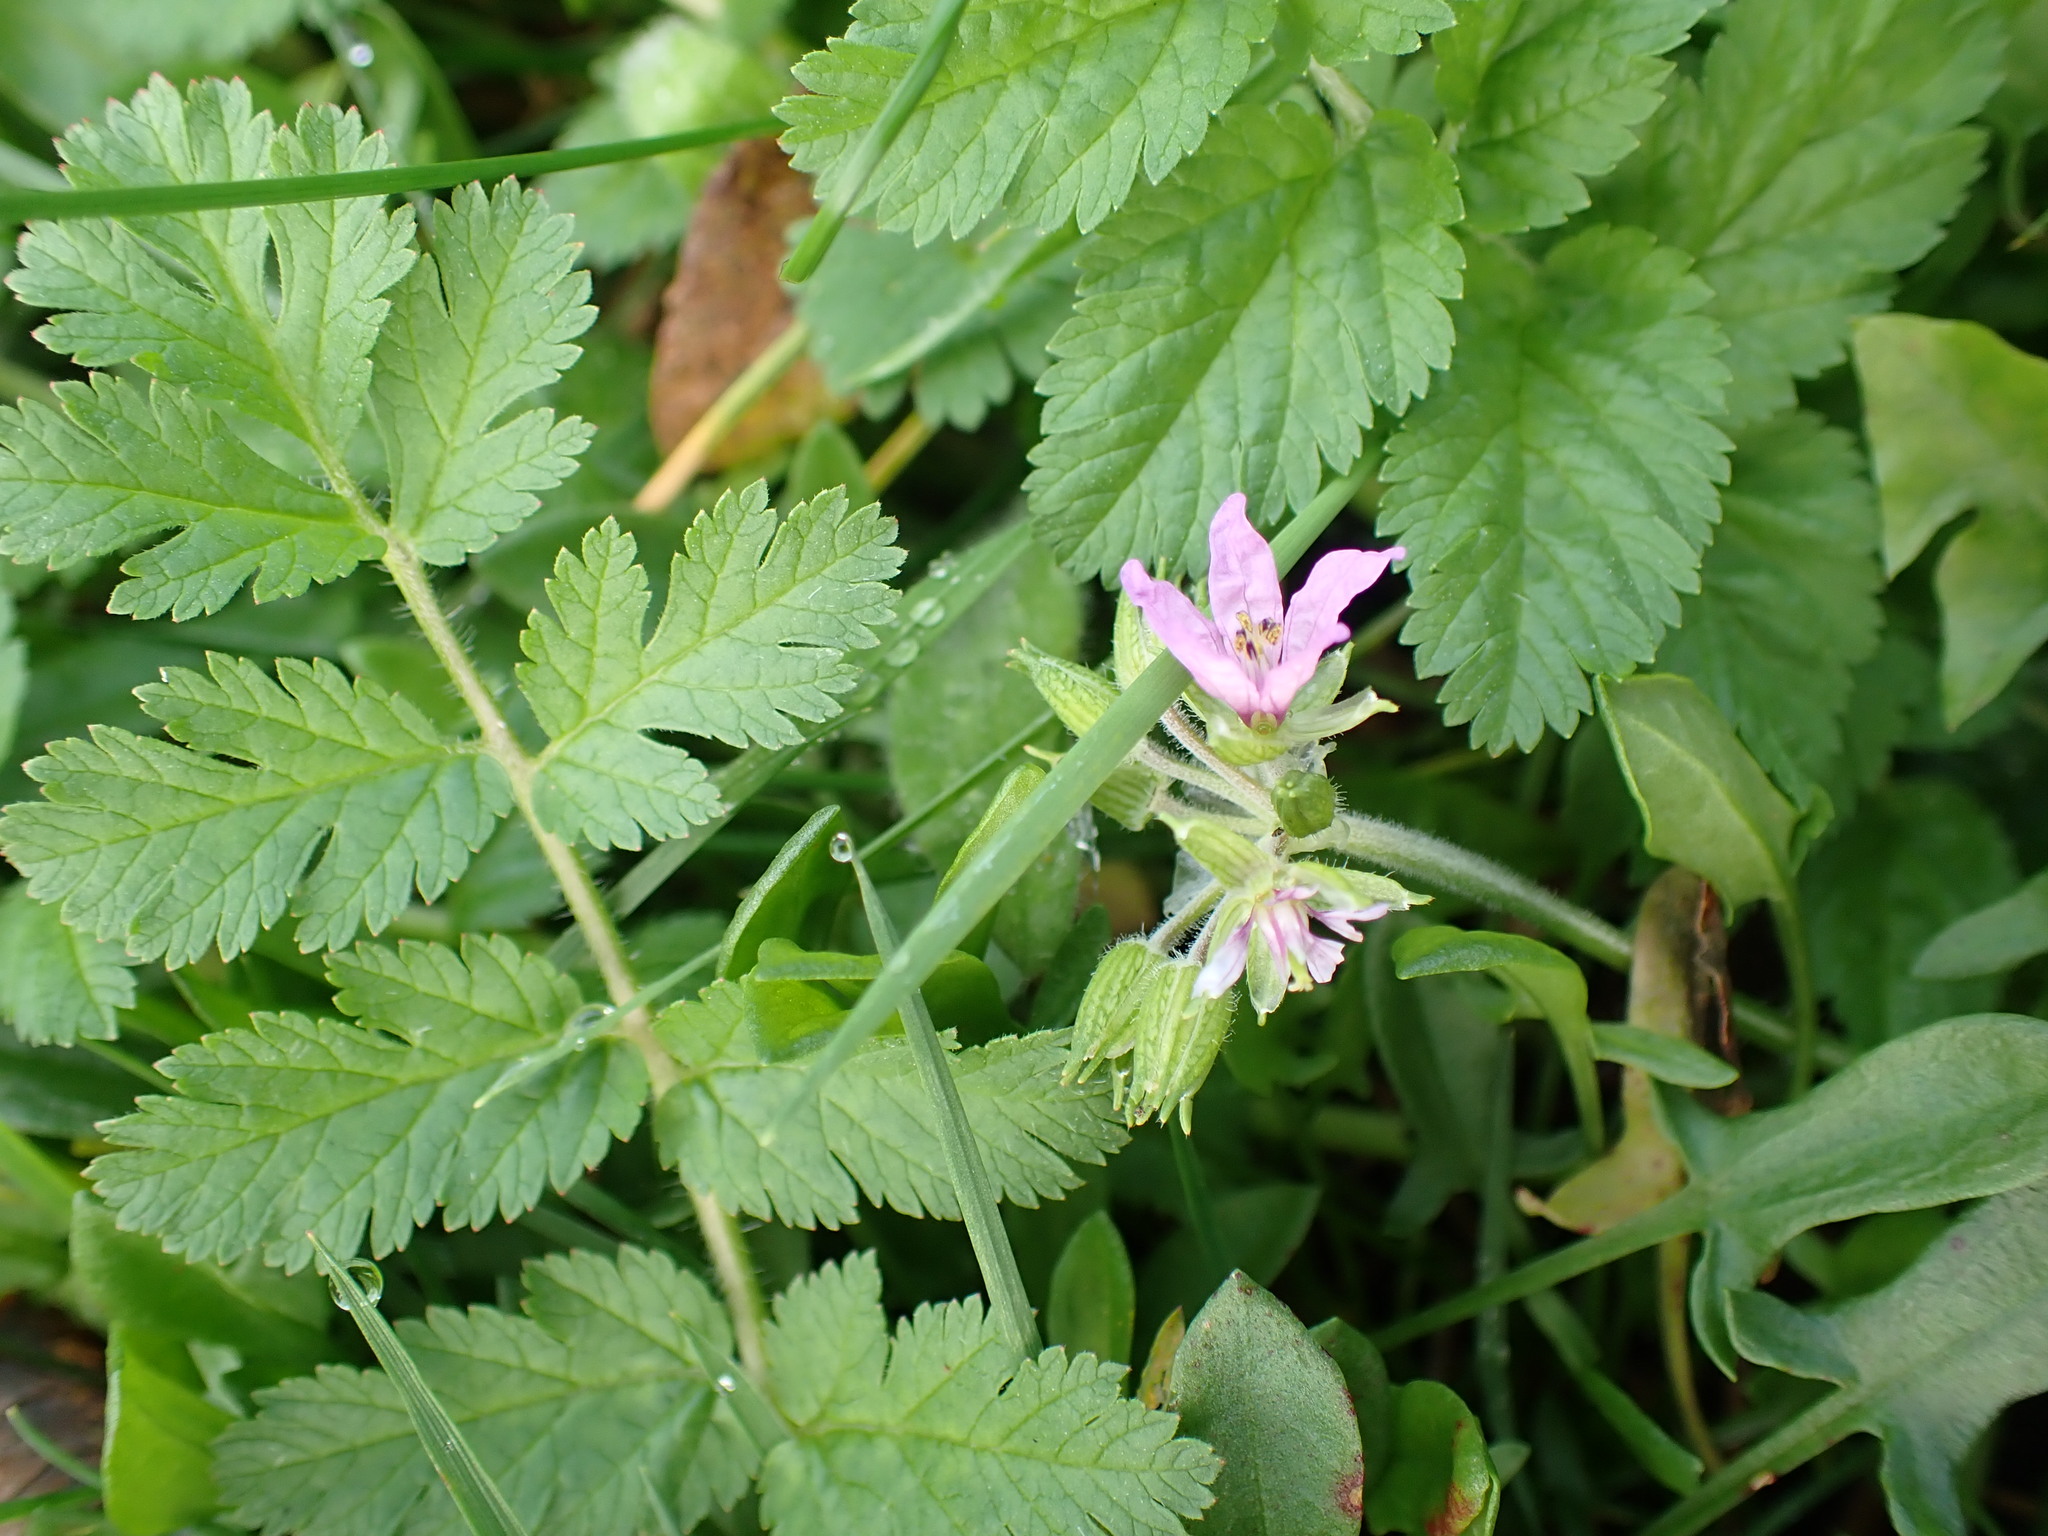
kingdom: Plantae
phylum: Tracheophyta
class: Magnoliopsida
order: Geraniales
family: Geraniaceae
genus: Erodium
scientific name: Erodium moschatum
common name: Musk stork's-bill
